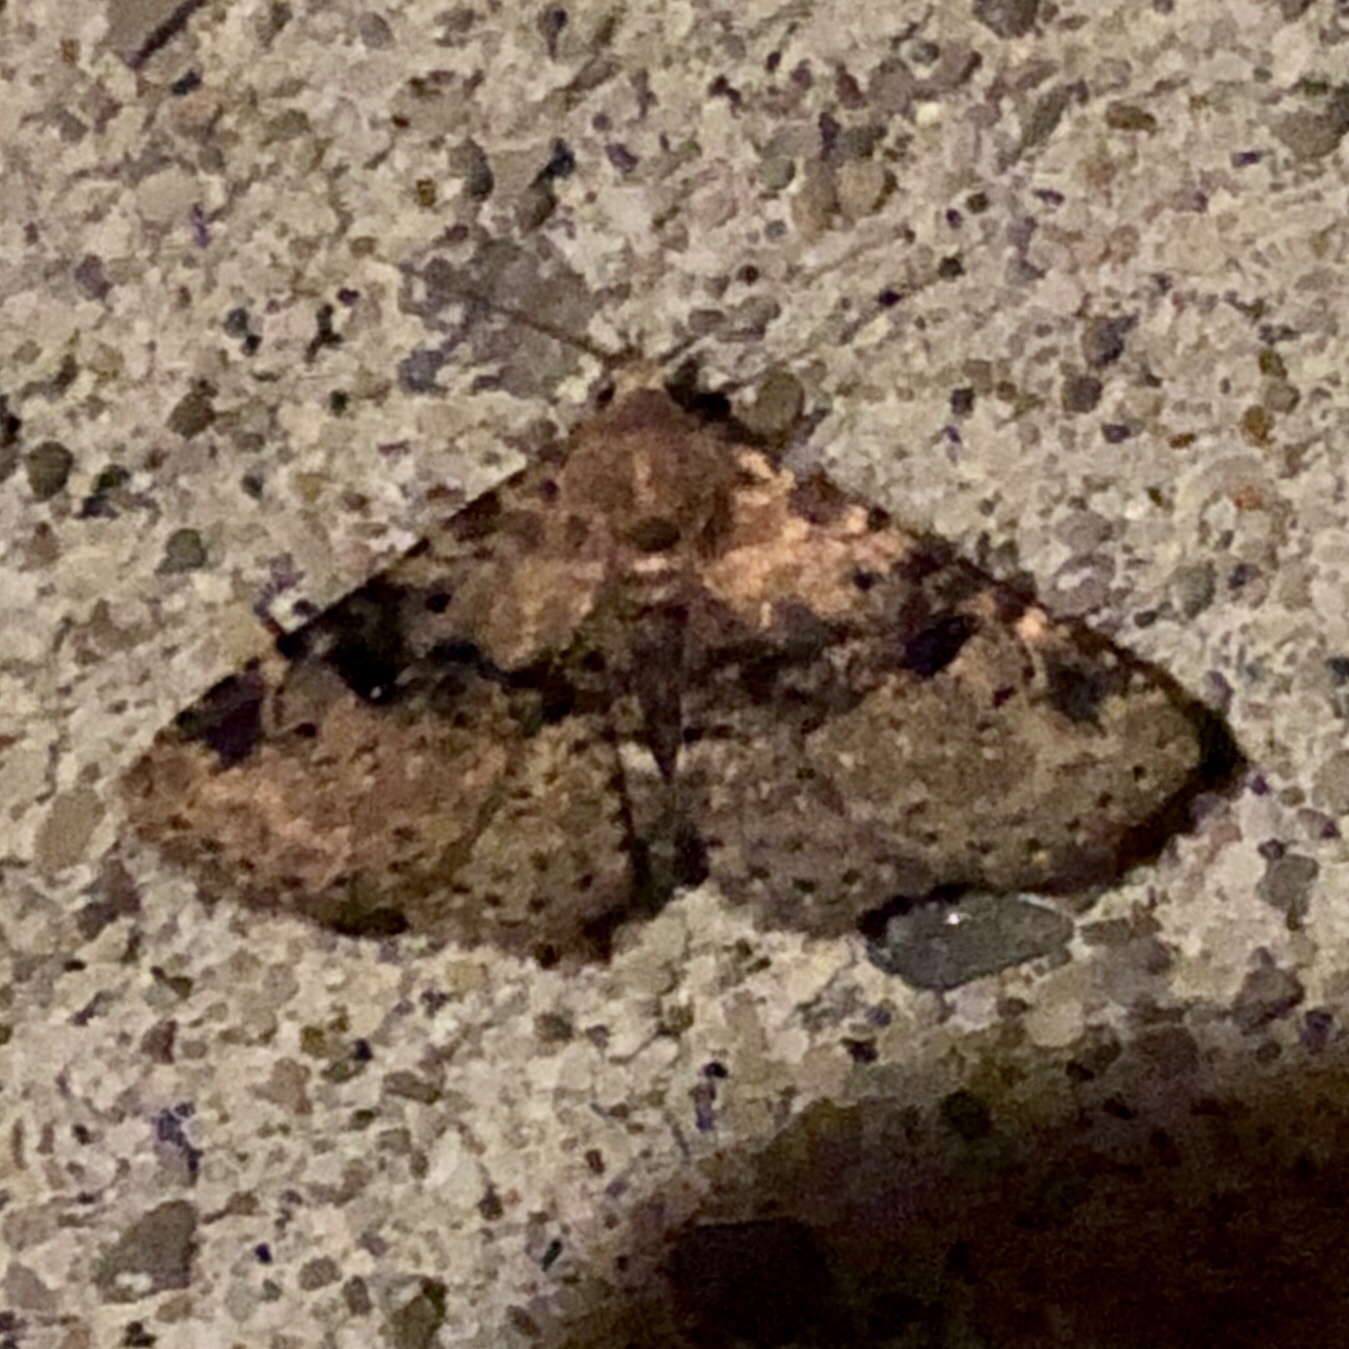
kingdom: Animalia
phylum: Arthropoda
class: Insecta
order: Lepidoptera
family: Erebidae
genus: Metalectra
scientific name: Metalectra discalis
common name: Common fungus moth
